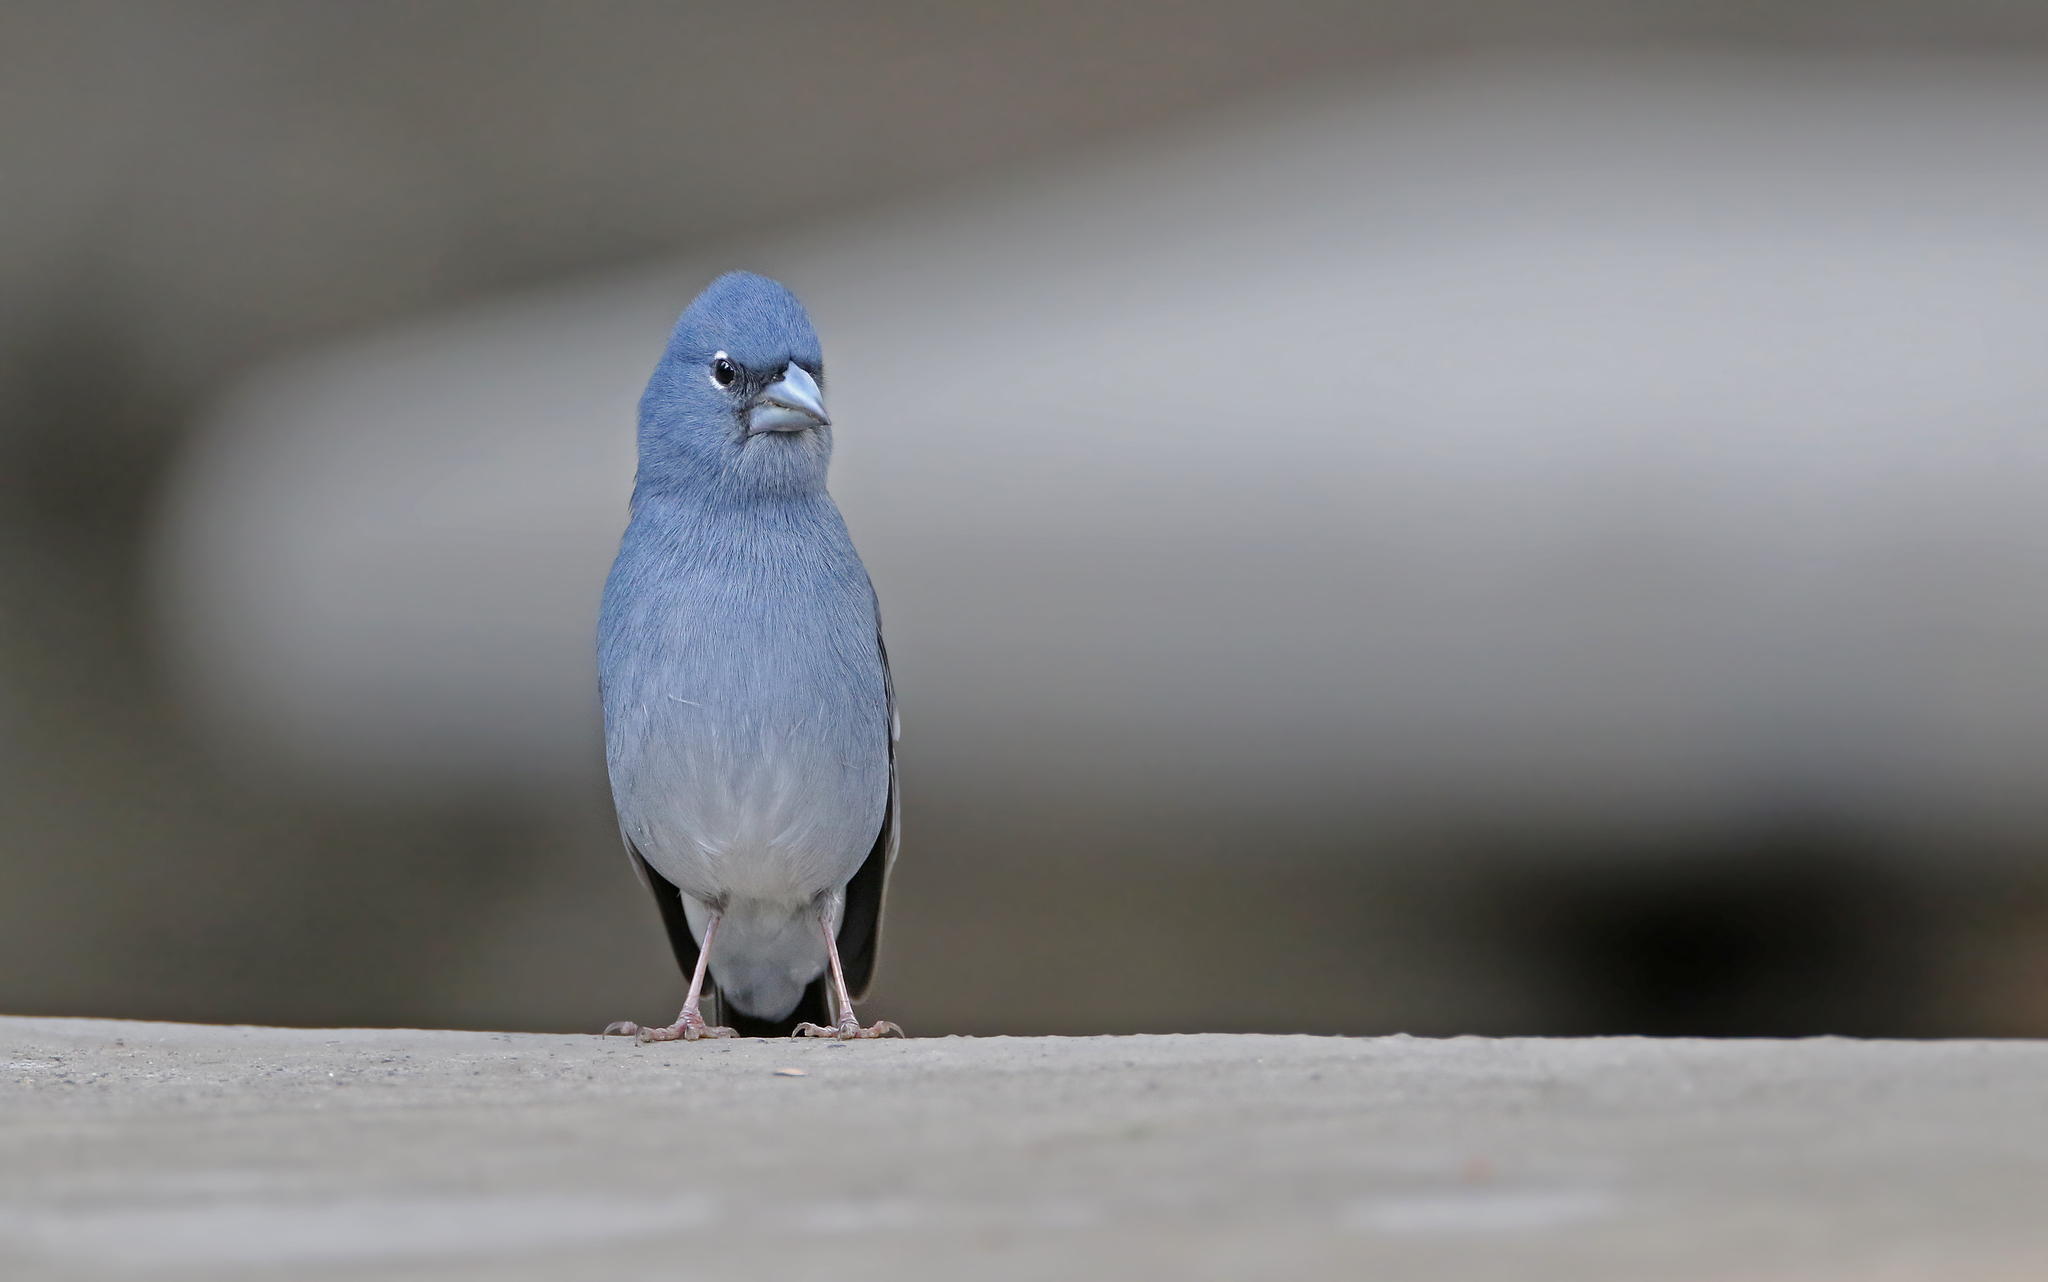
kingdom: Animalia
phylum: Chordata
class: Aves
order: Passeriformes
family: Fringillidae
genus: Fringilla
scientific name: Fringilla teydea
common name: Blue chaffinch
